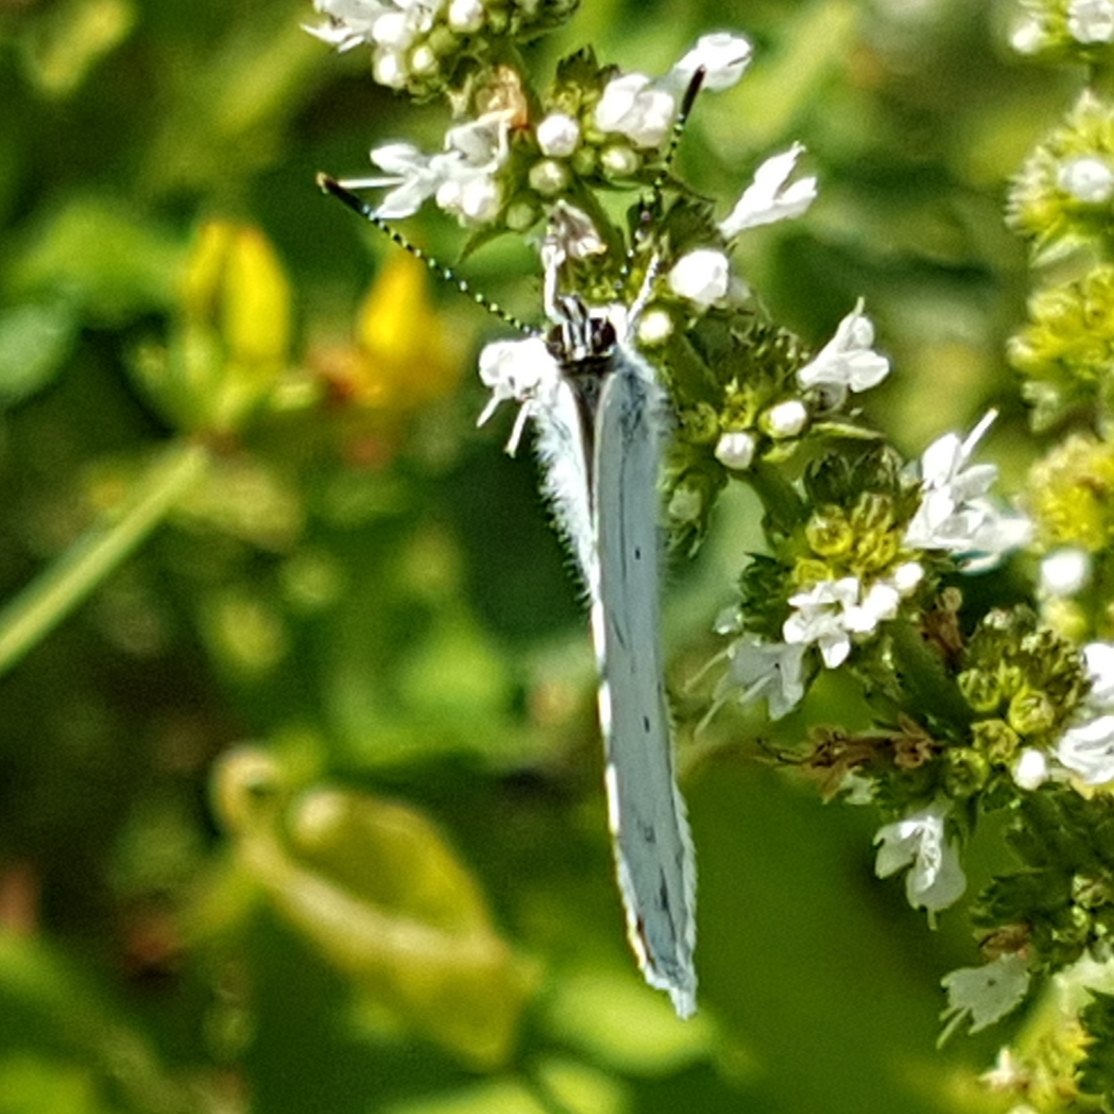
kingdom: Animalia
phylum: Arthropoda
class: Insecta
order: Lepidoptera
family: Lycaenidae
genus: Celastrina
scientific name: Celastrina argiolus
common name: Holly blue
